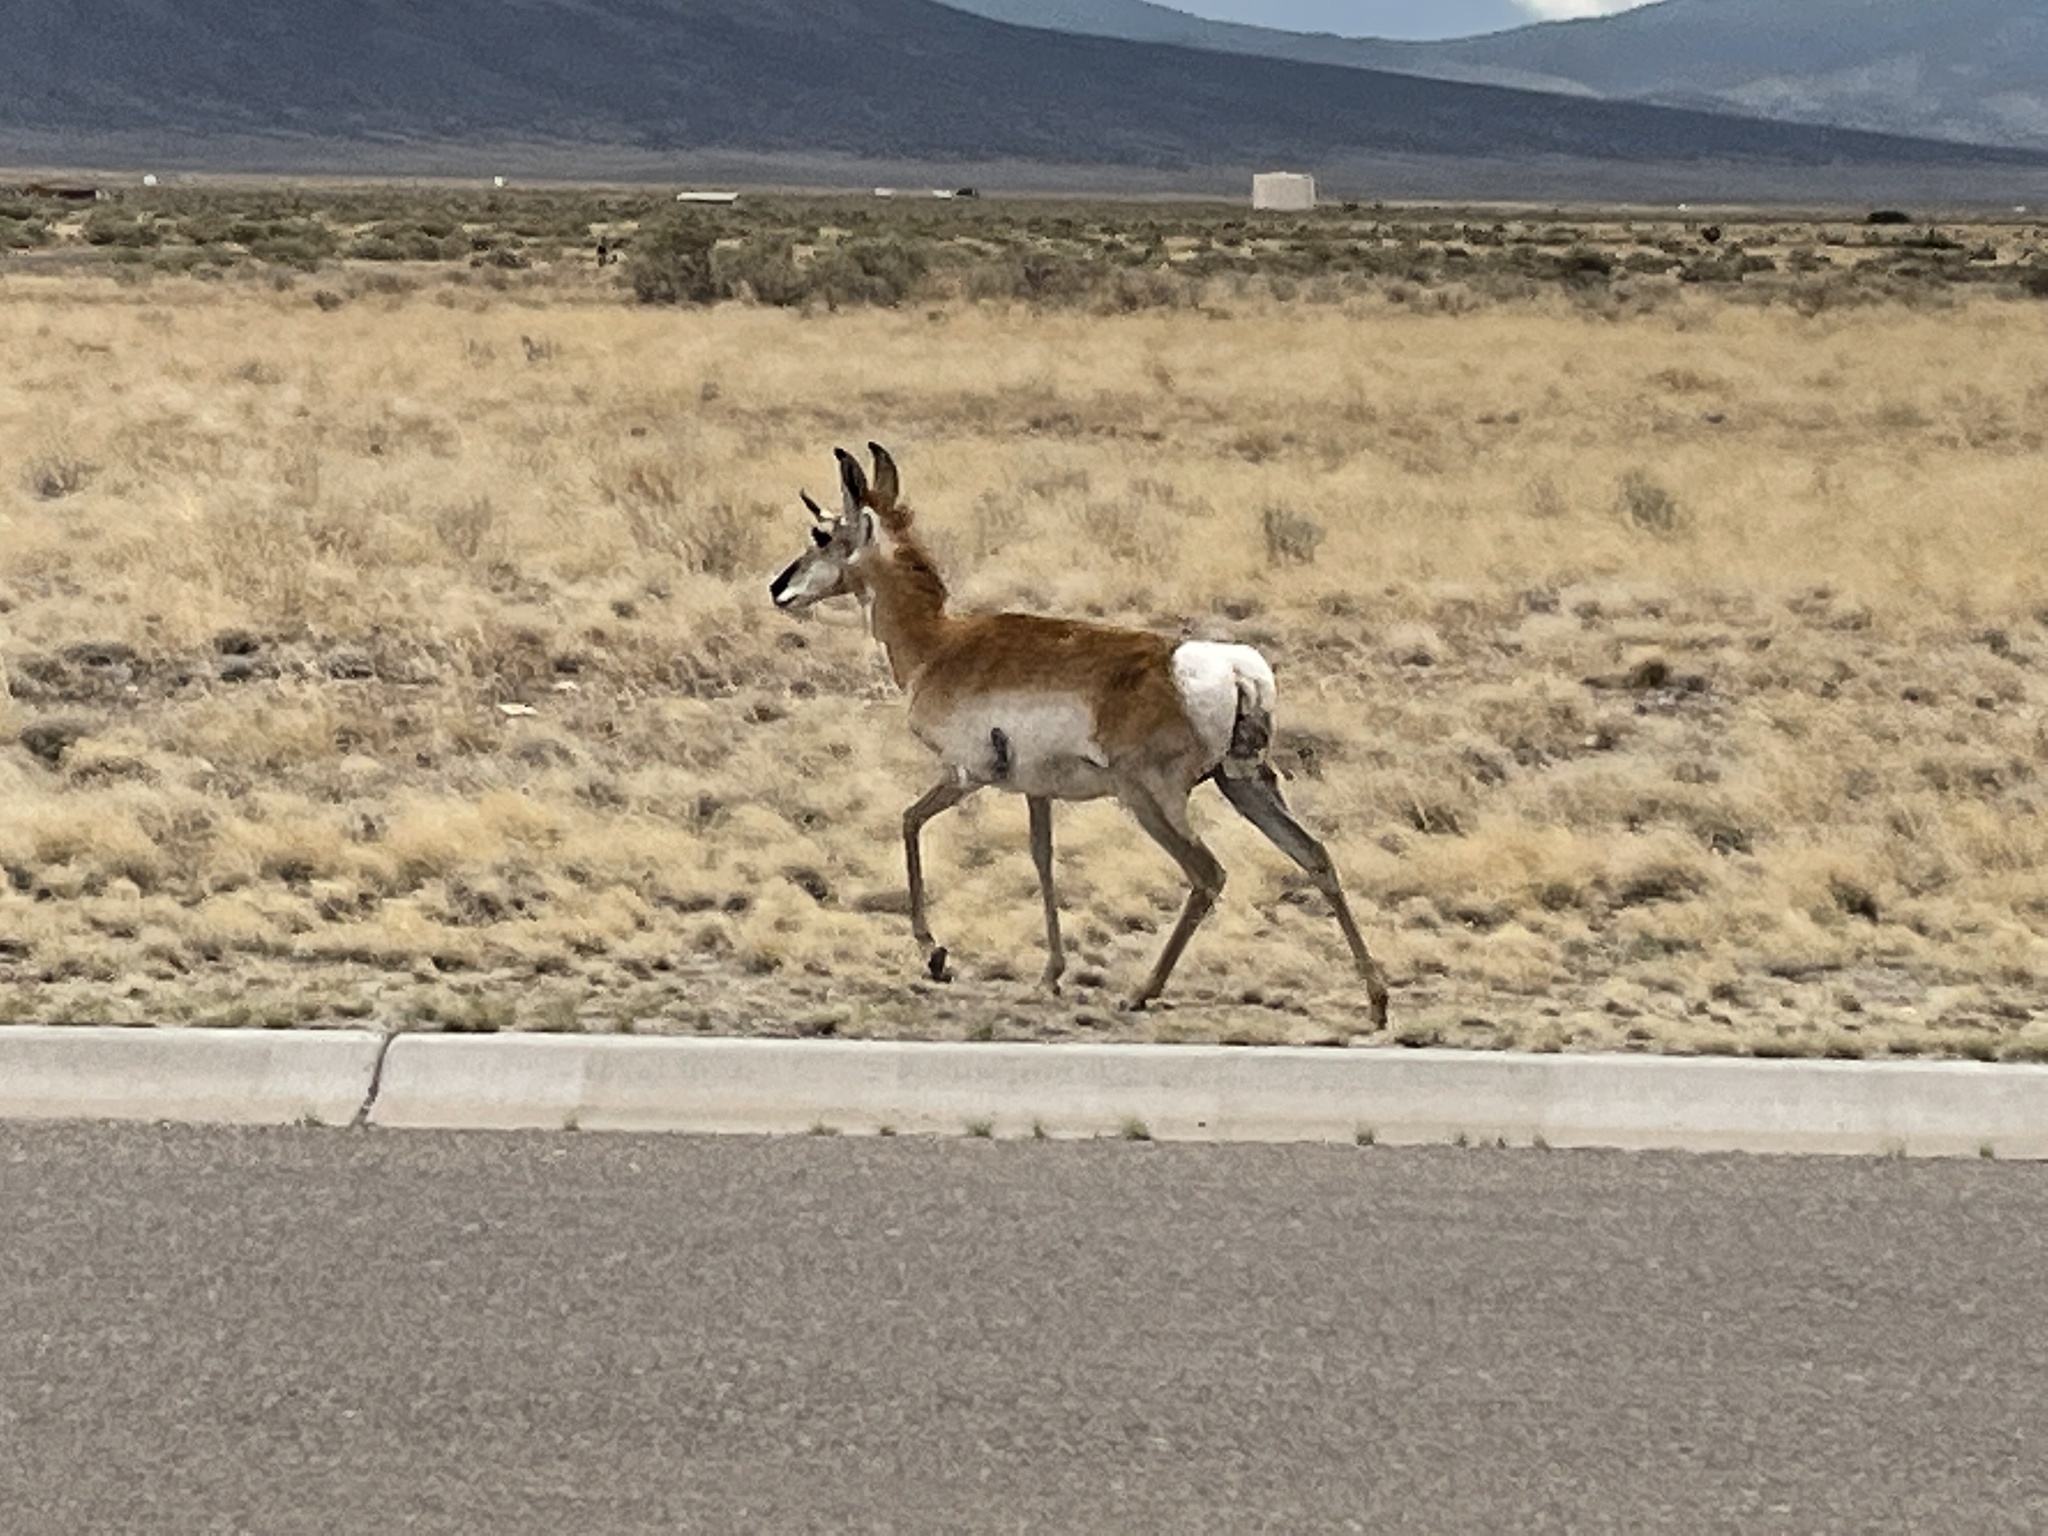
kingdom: Animalia
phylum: Chordata
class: Mammalia
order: Artiodactyla
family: Antilocapridae
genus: Antilocapra
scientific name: Antilocapra americana
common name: Pronghorn
